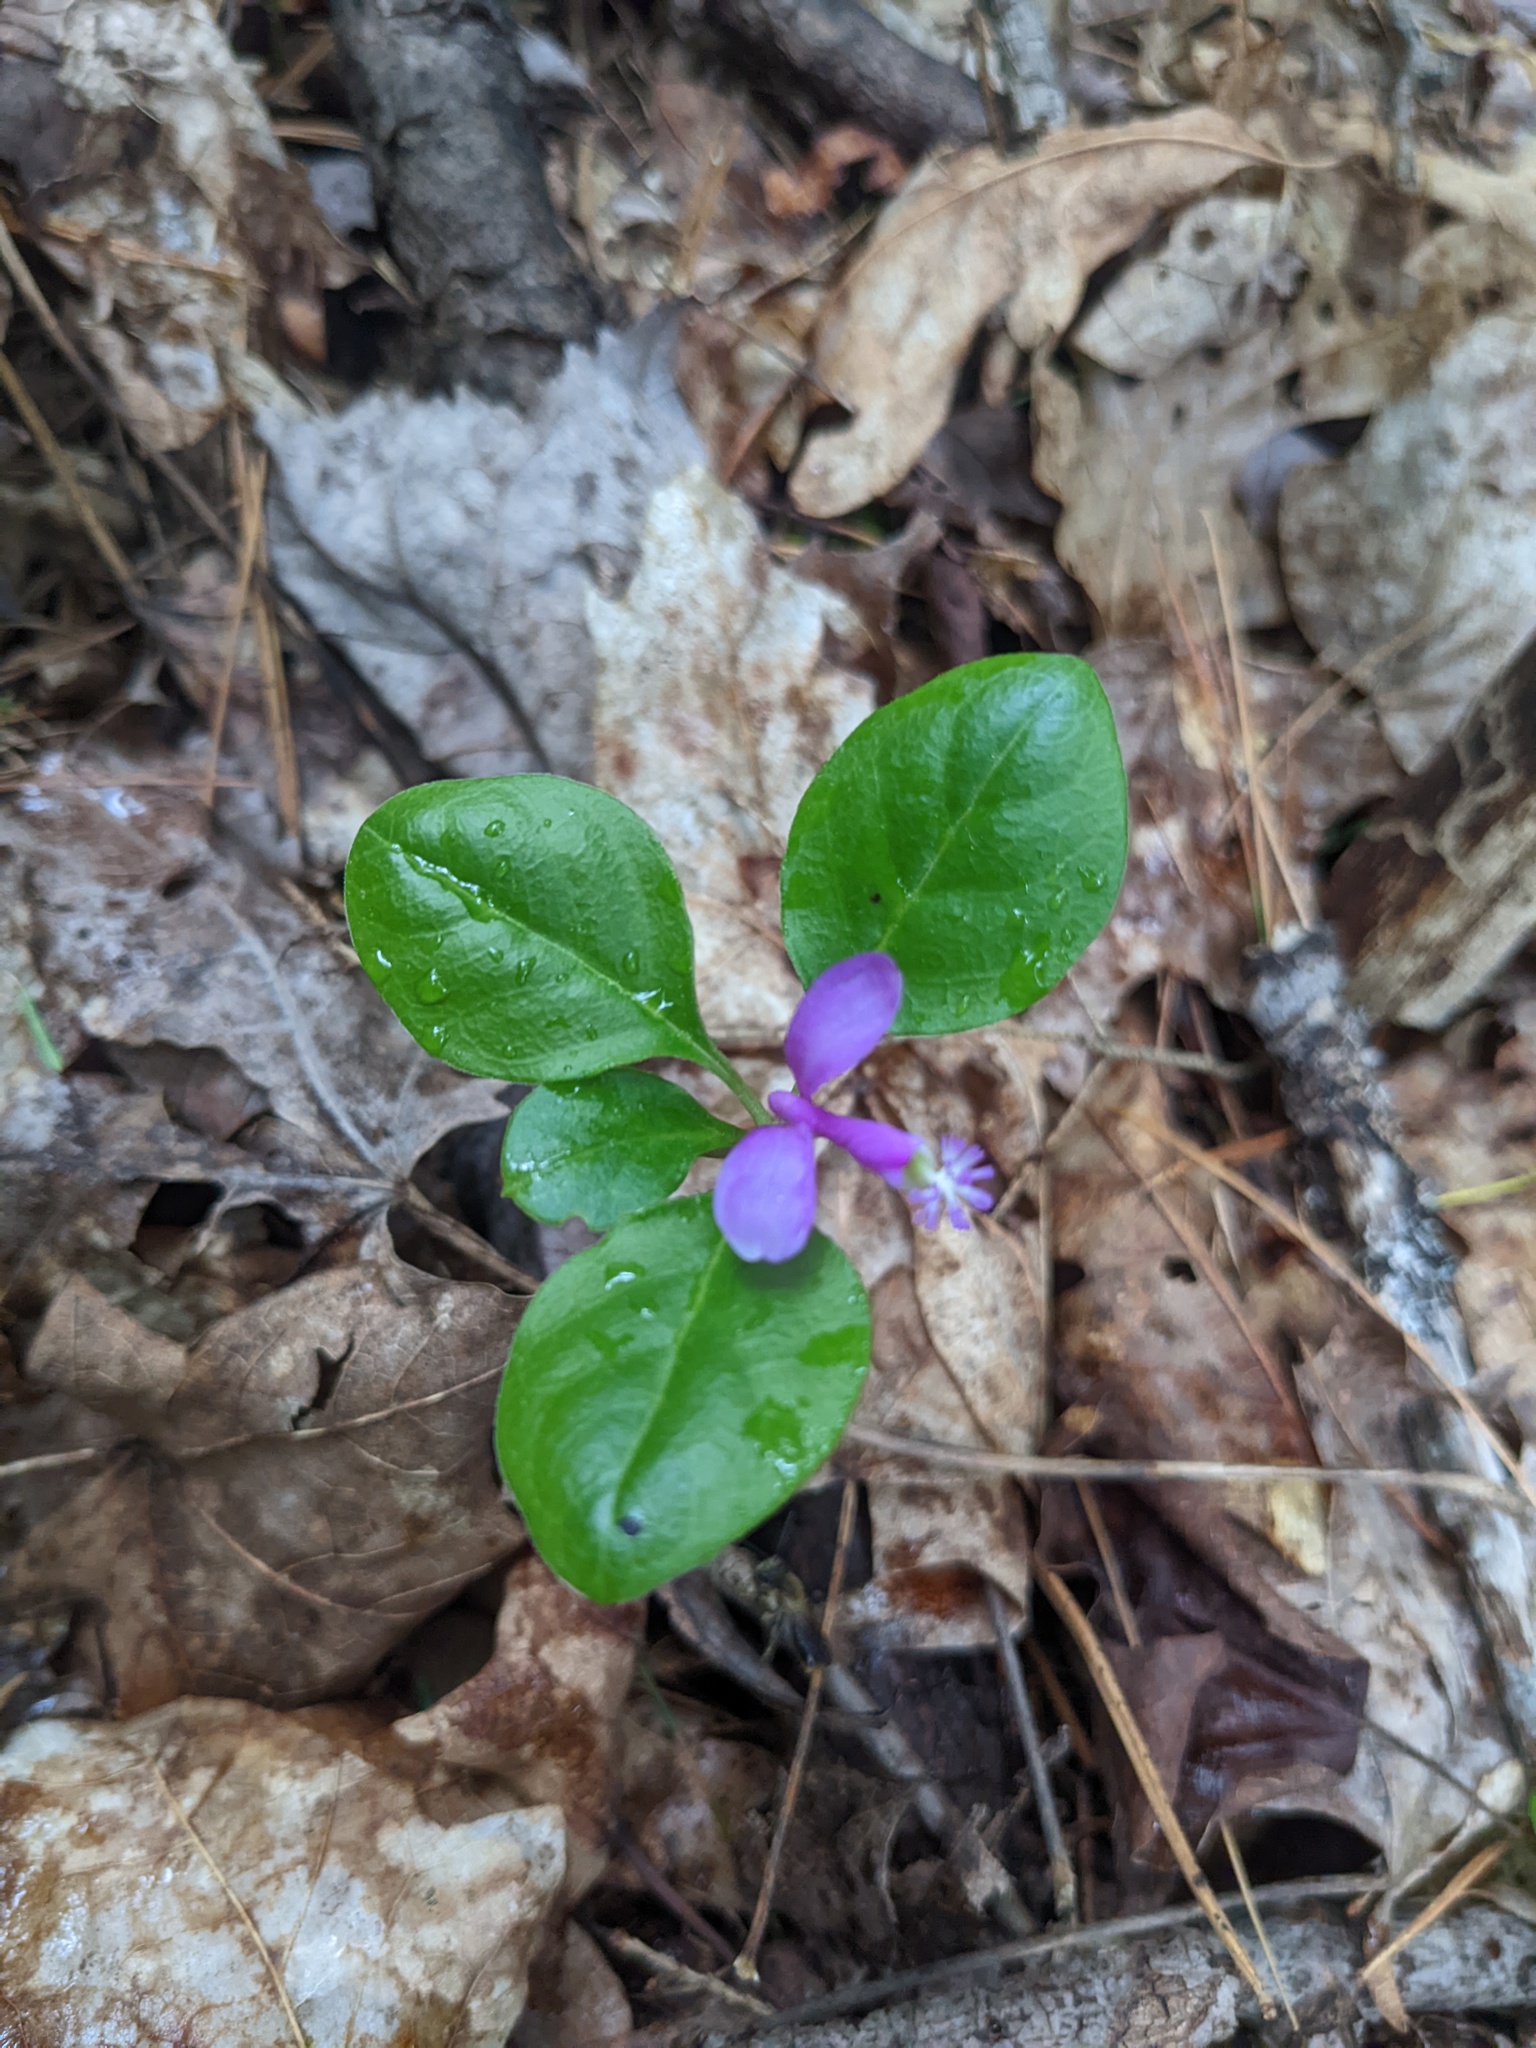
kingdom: Plantae
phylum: Tracheophyta
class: Magnoliopsida
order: Fabales
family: Polygalaceae
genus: Polygaloides
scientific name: Polygaloides paucifolia
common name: Bird-on-the-wing
